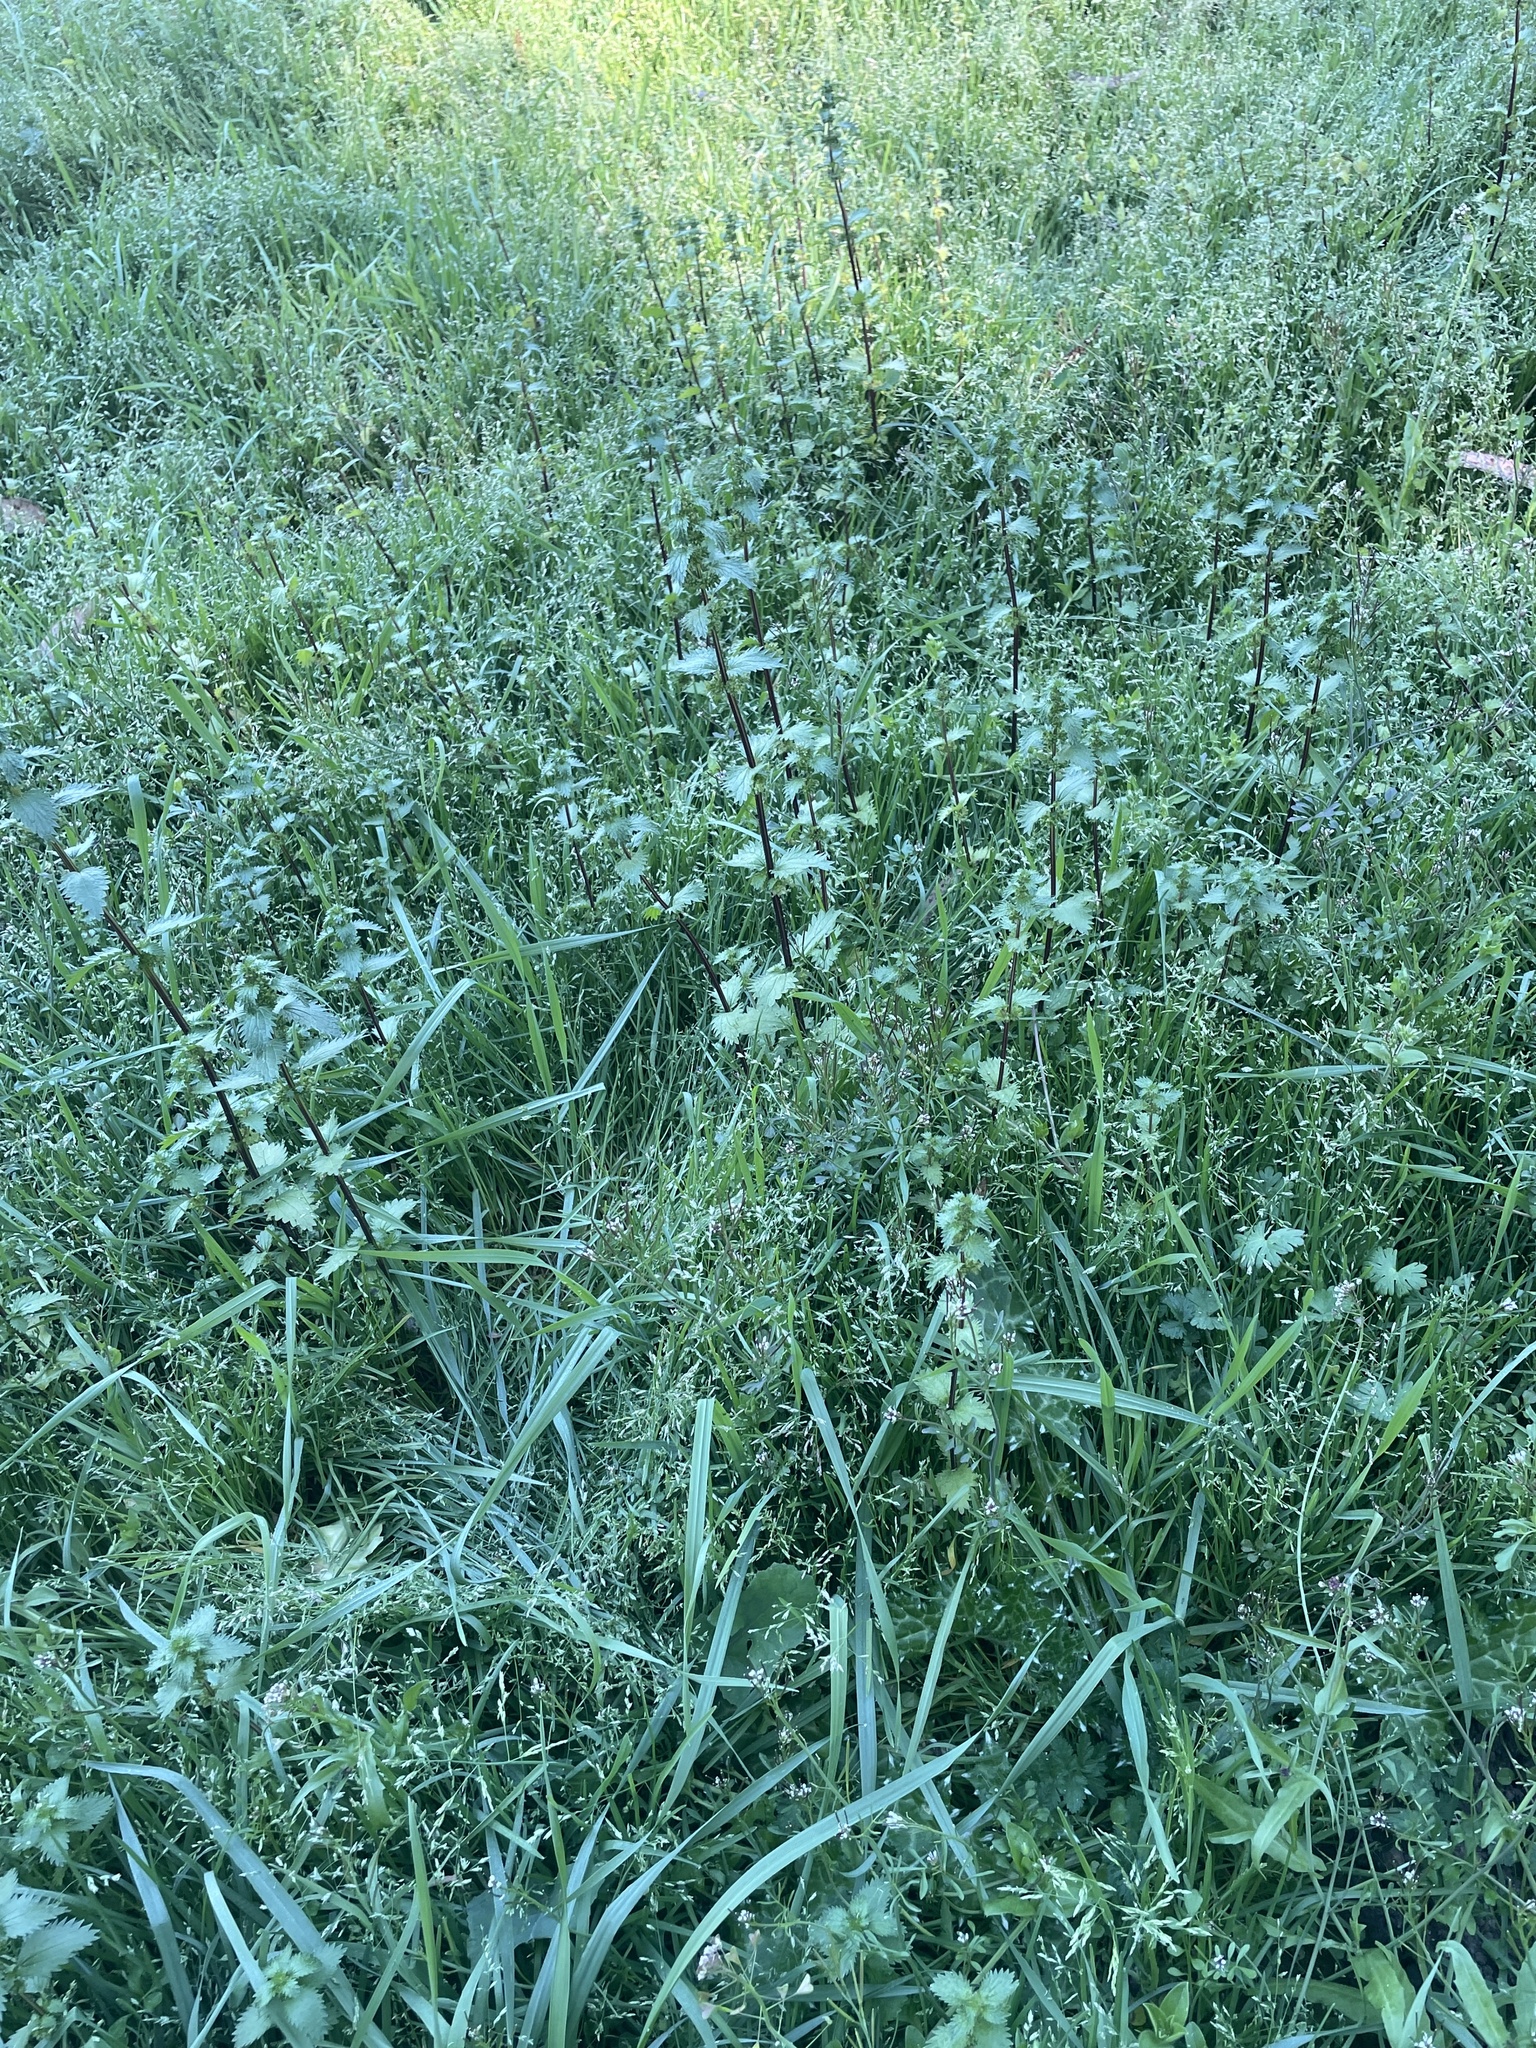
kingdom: Plantae
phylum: Tracheophyta
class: Magnoliopsida
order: Rosales
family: Urticaceae
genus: Urtica
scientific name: Urtica urens
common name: Dwarf nettle
